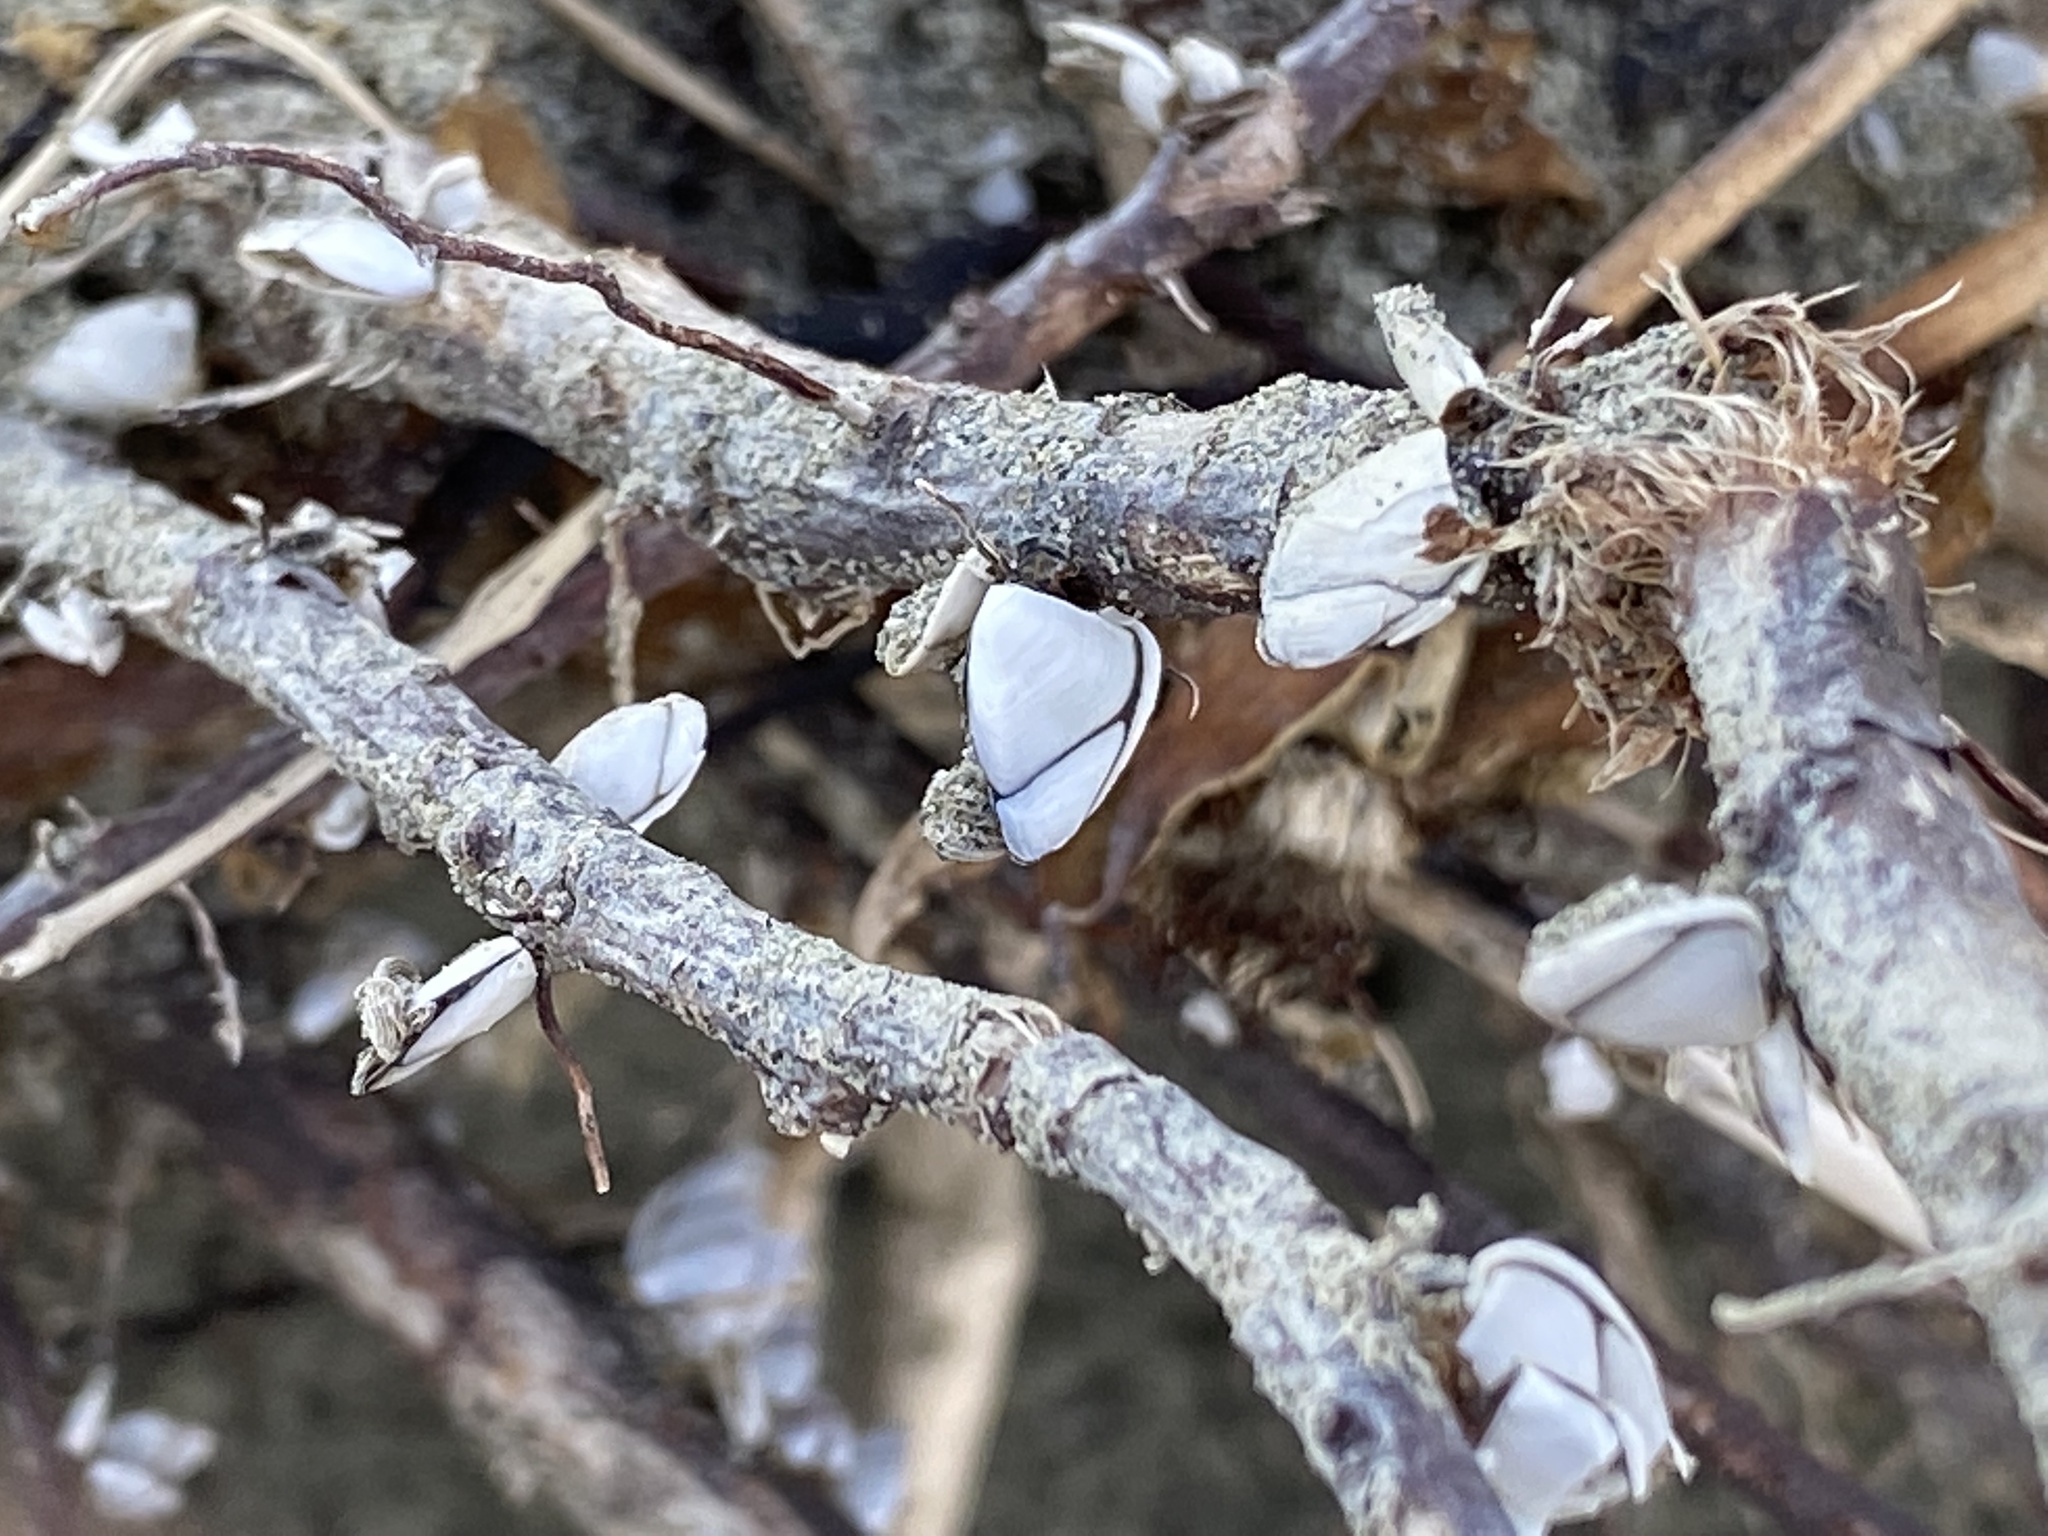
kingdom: Animalia
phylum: Arthropoda
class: Maxillopoda
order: Pedunculata
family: Lepadidae
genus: Lepas
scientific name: Lepas australis
